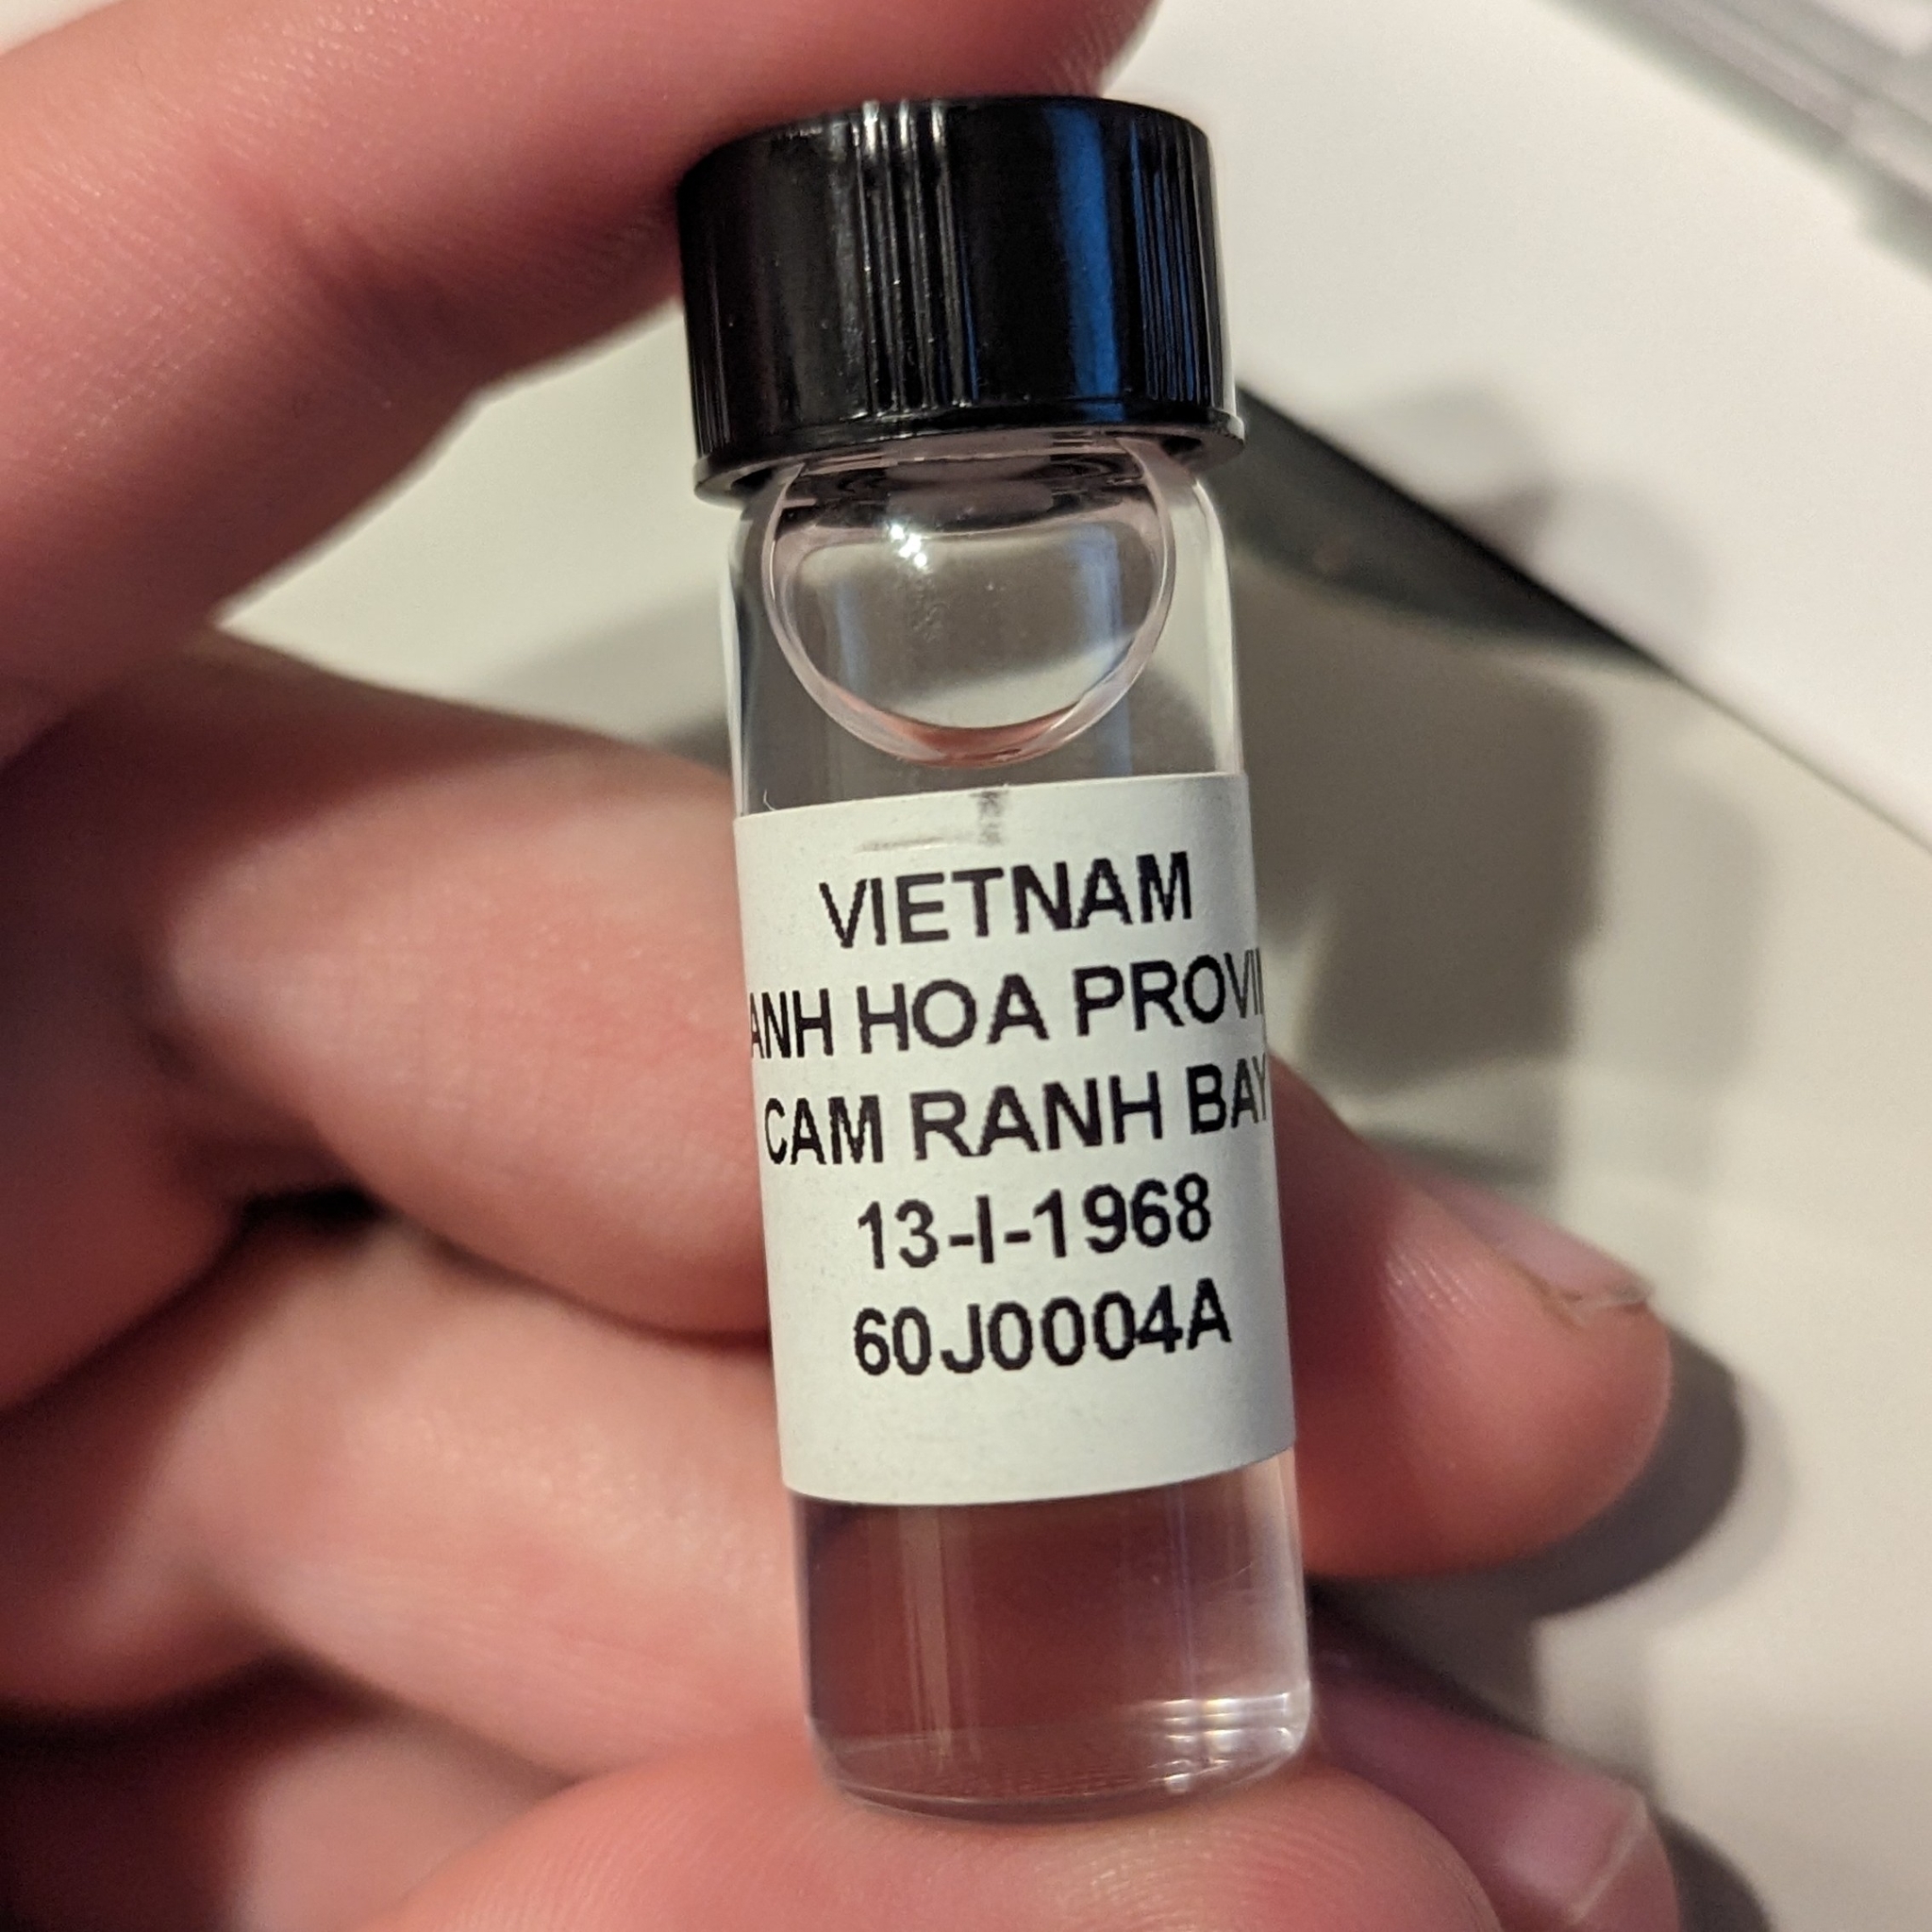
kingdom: Animalia
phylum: Arthropoda
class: Insecta
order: Hymenoptera
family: Formicidae
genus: Oecophylla
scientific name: Oecophylla smaragdina
